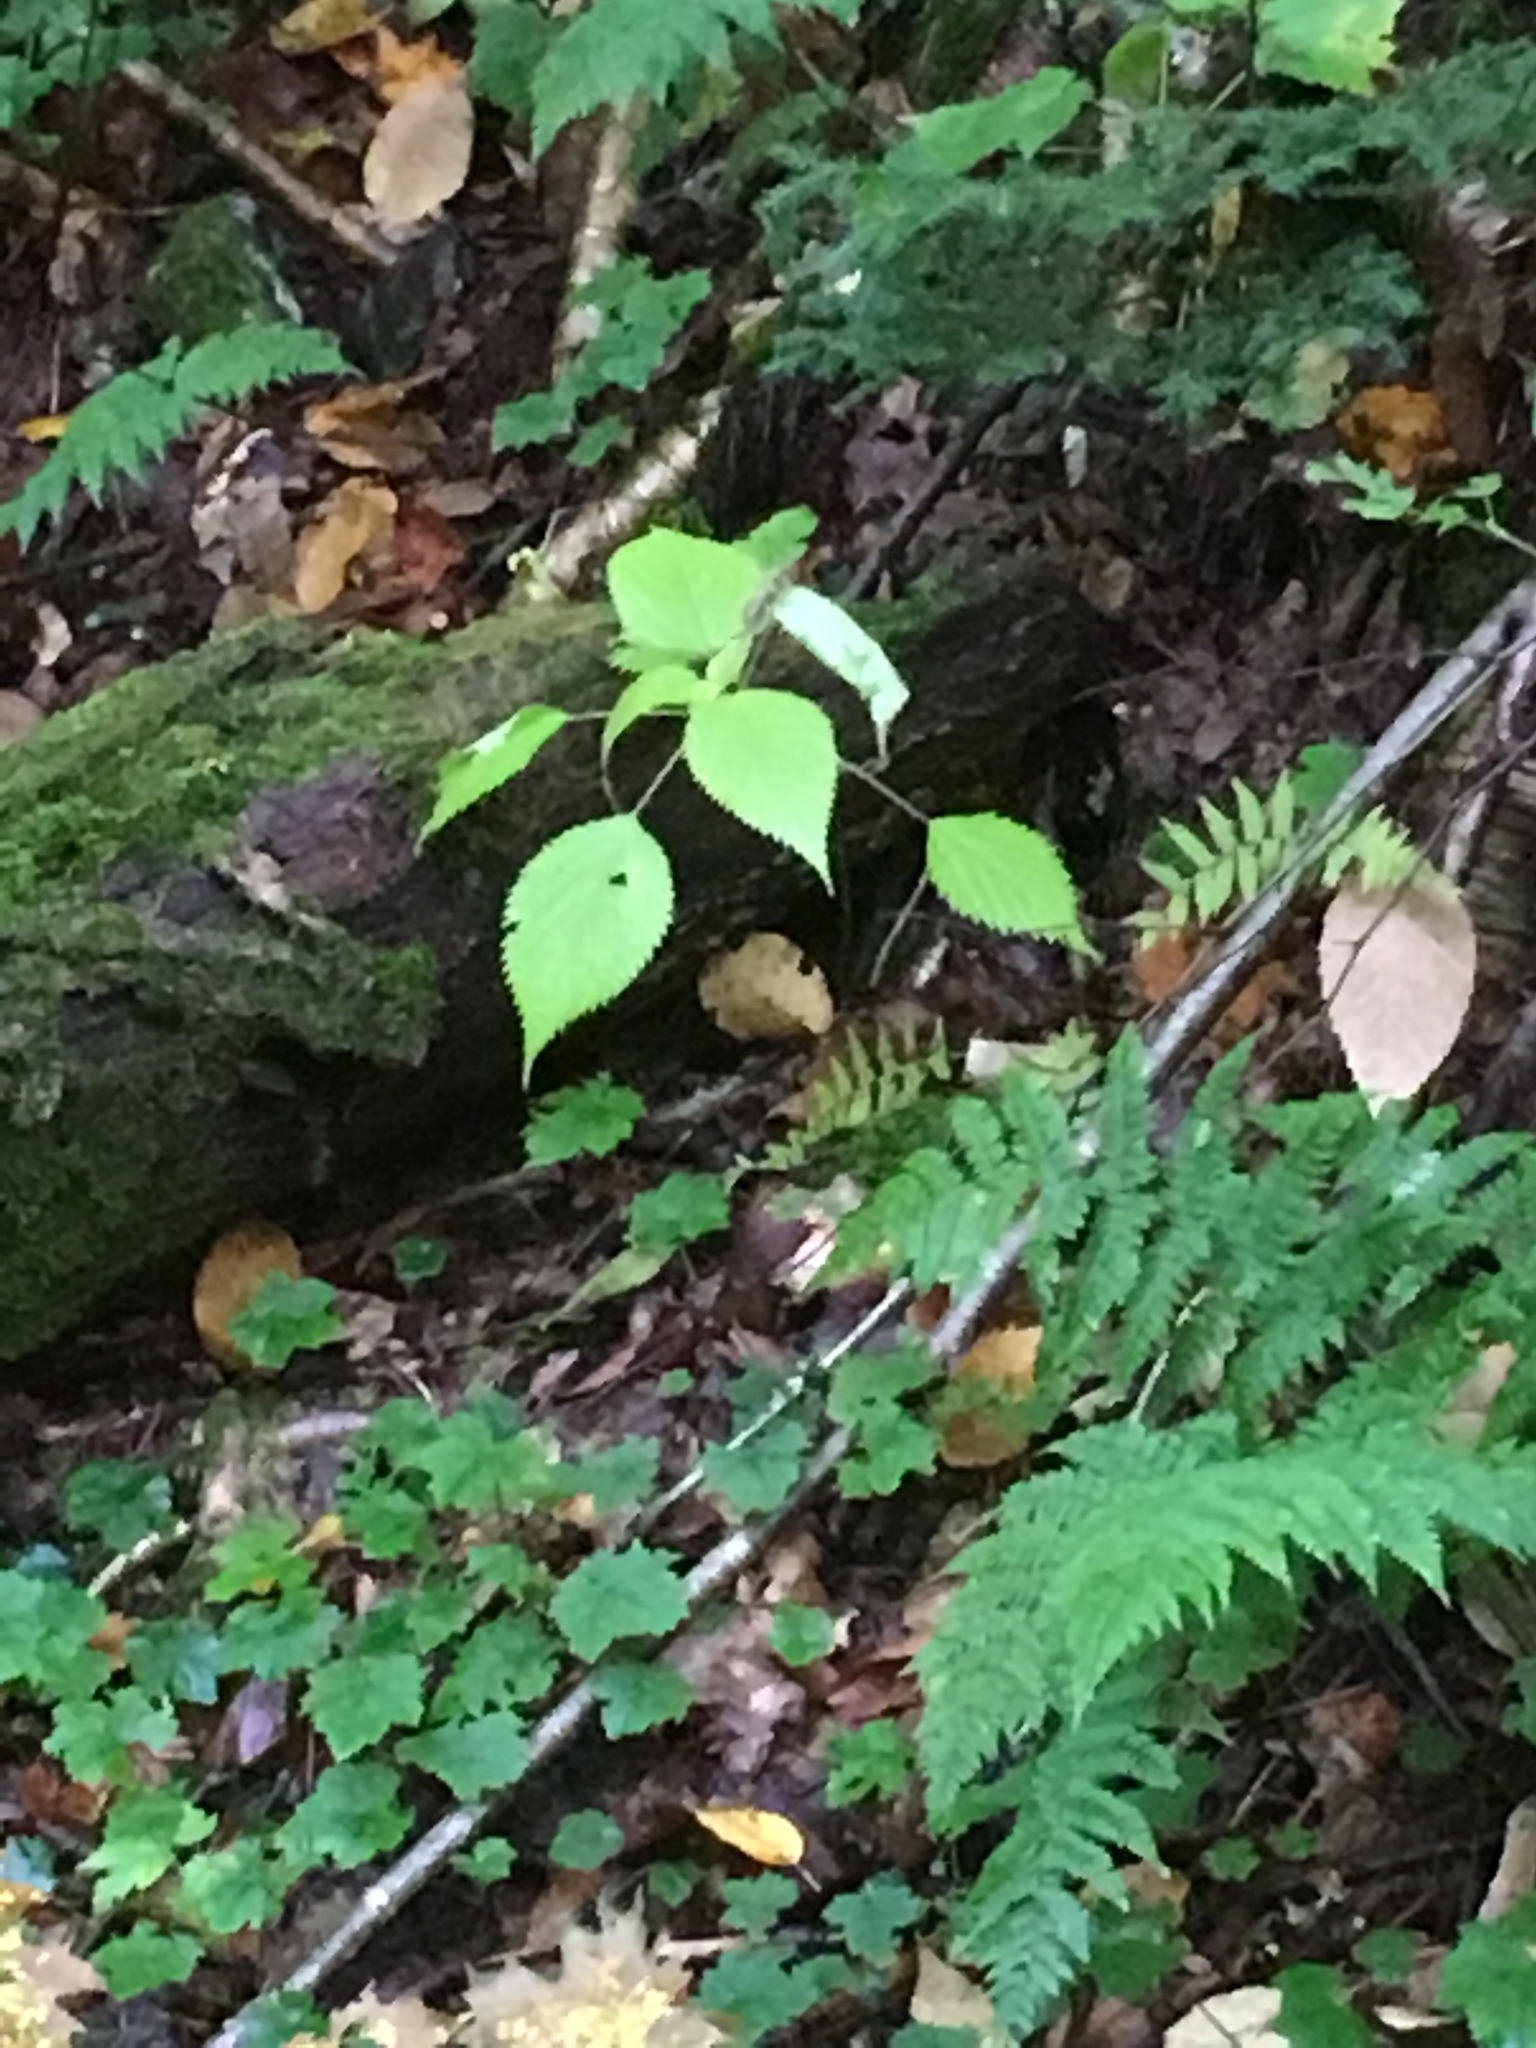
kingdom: Plantae
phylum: Tracheophyta
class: Magnoliopsida
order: Rosales
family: Urticaceae
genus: Laportea
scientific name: Laportea canadensis
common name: Canada nettle
